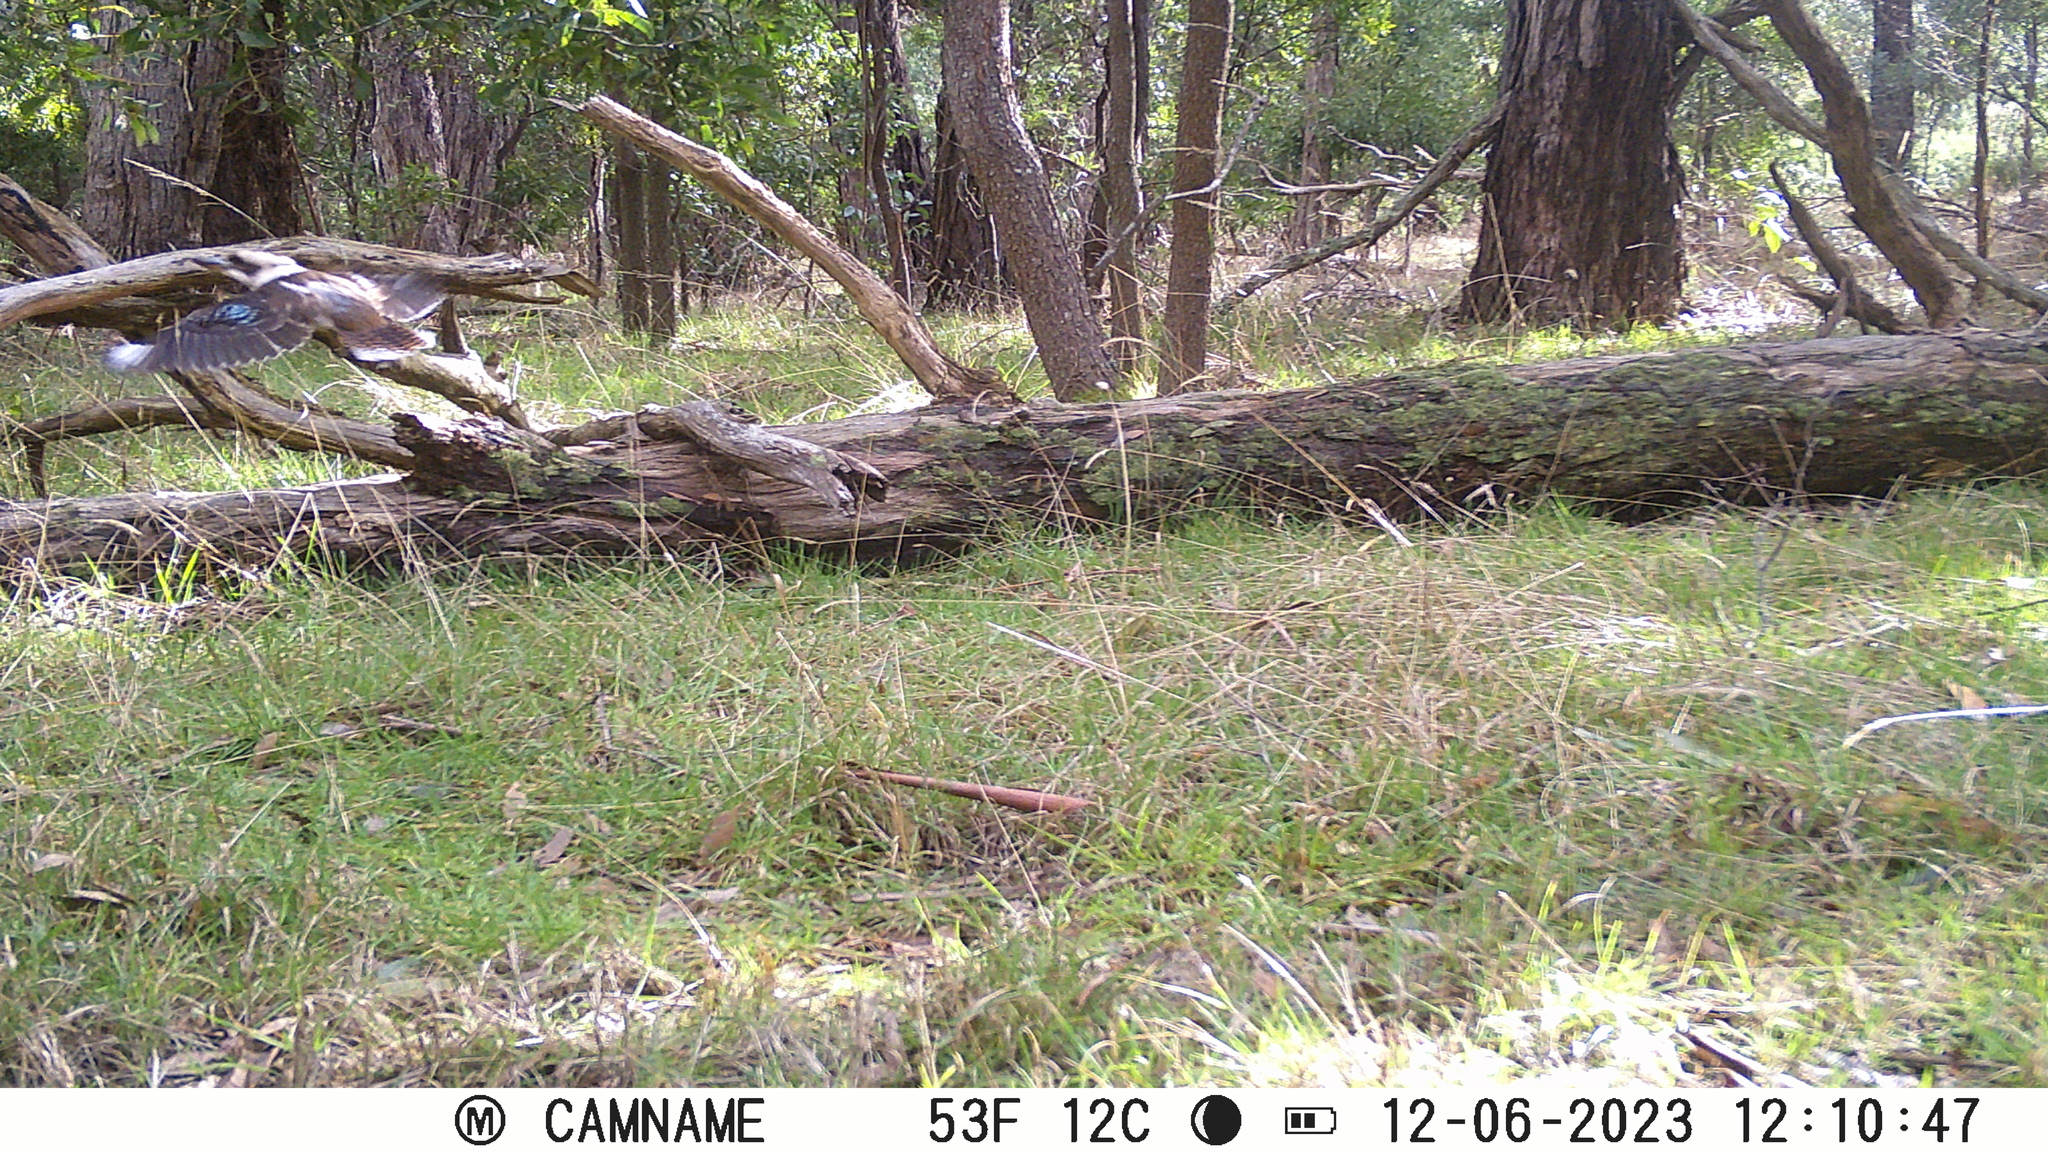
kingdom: Animalia
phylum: Chordata
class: Aves
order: Coraciiformes
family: Alcedinidae
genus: Dacelo
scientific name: Dacelo novaeguineae
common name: Laughing kookaburra
